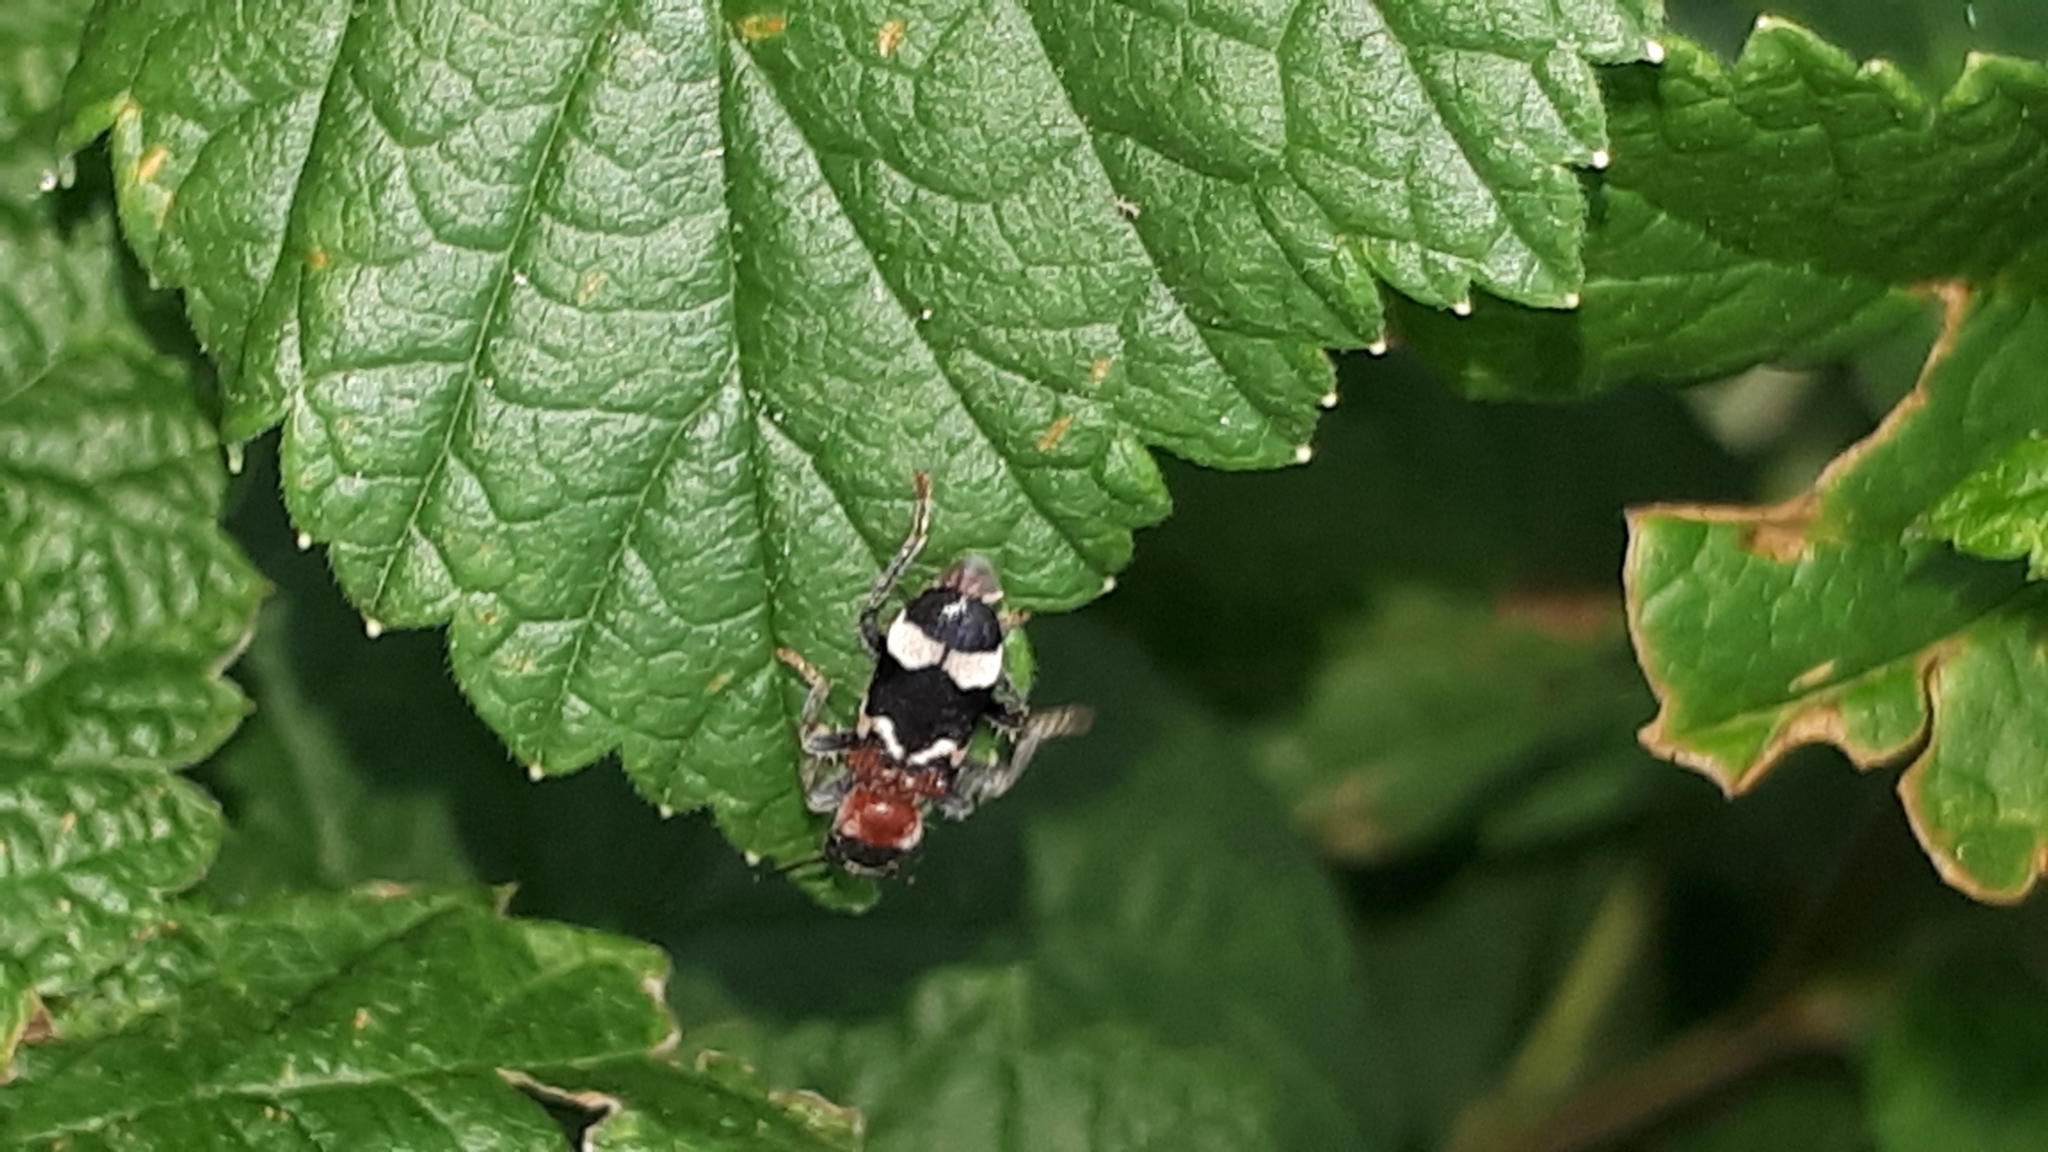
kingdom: Animalia
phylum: Arthropoda
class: Insecta
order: Coleoptera
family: Cleridae
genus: Thanasimus
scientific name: Thanasimus formicarius
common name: Ant beetle
